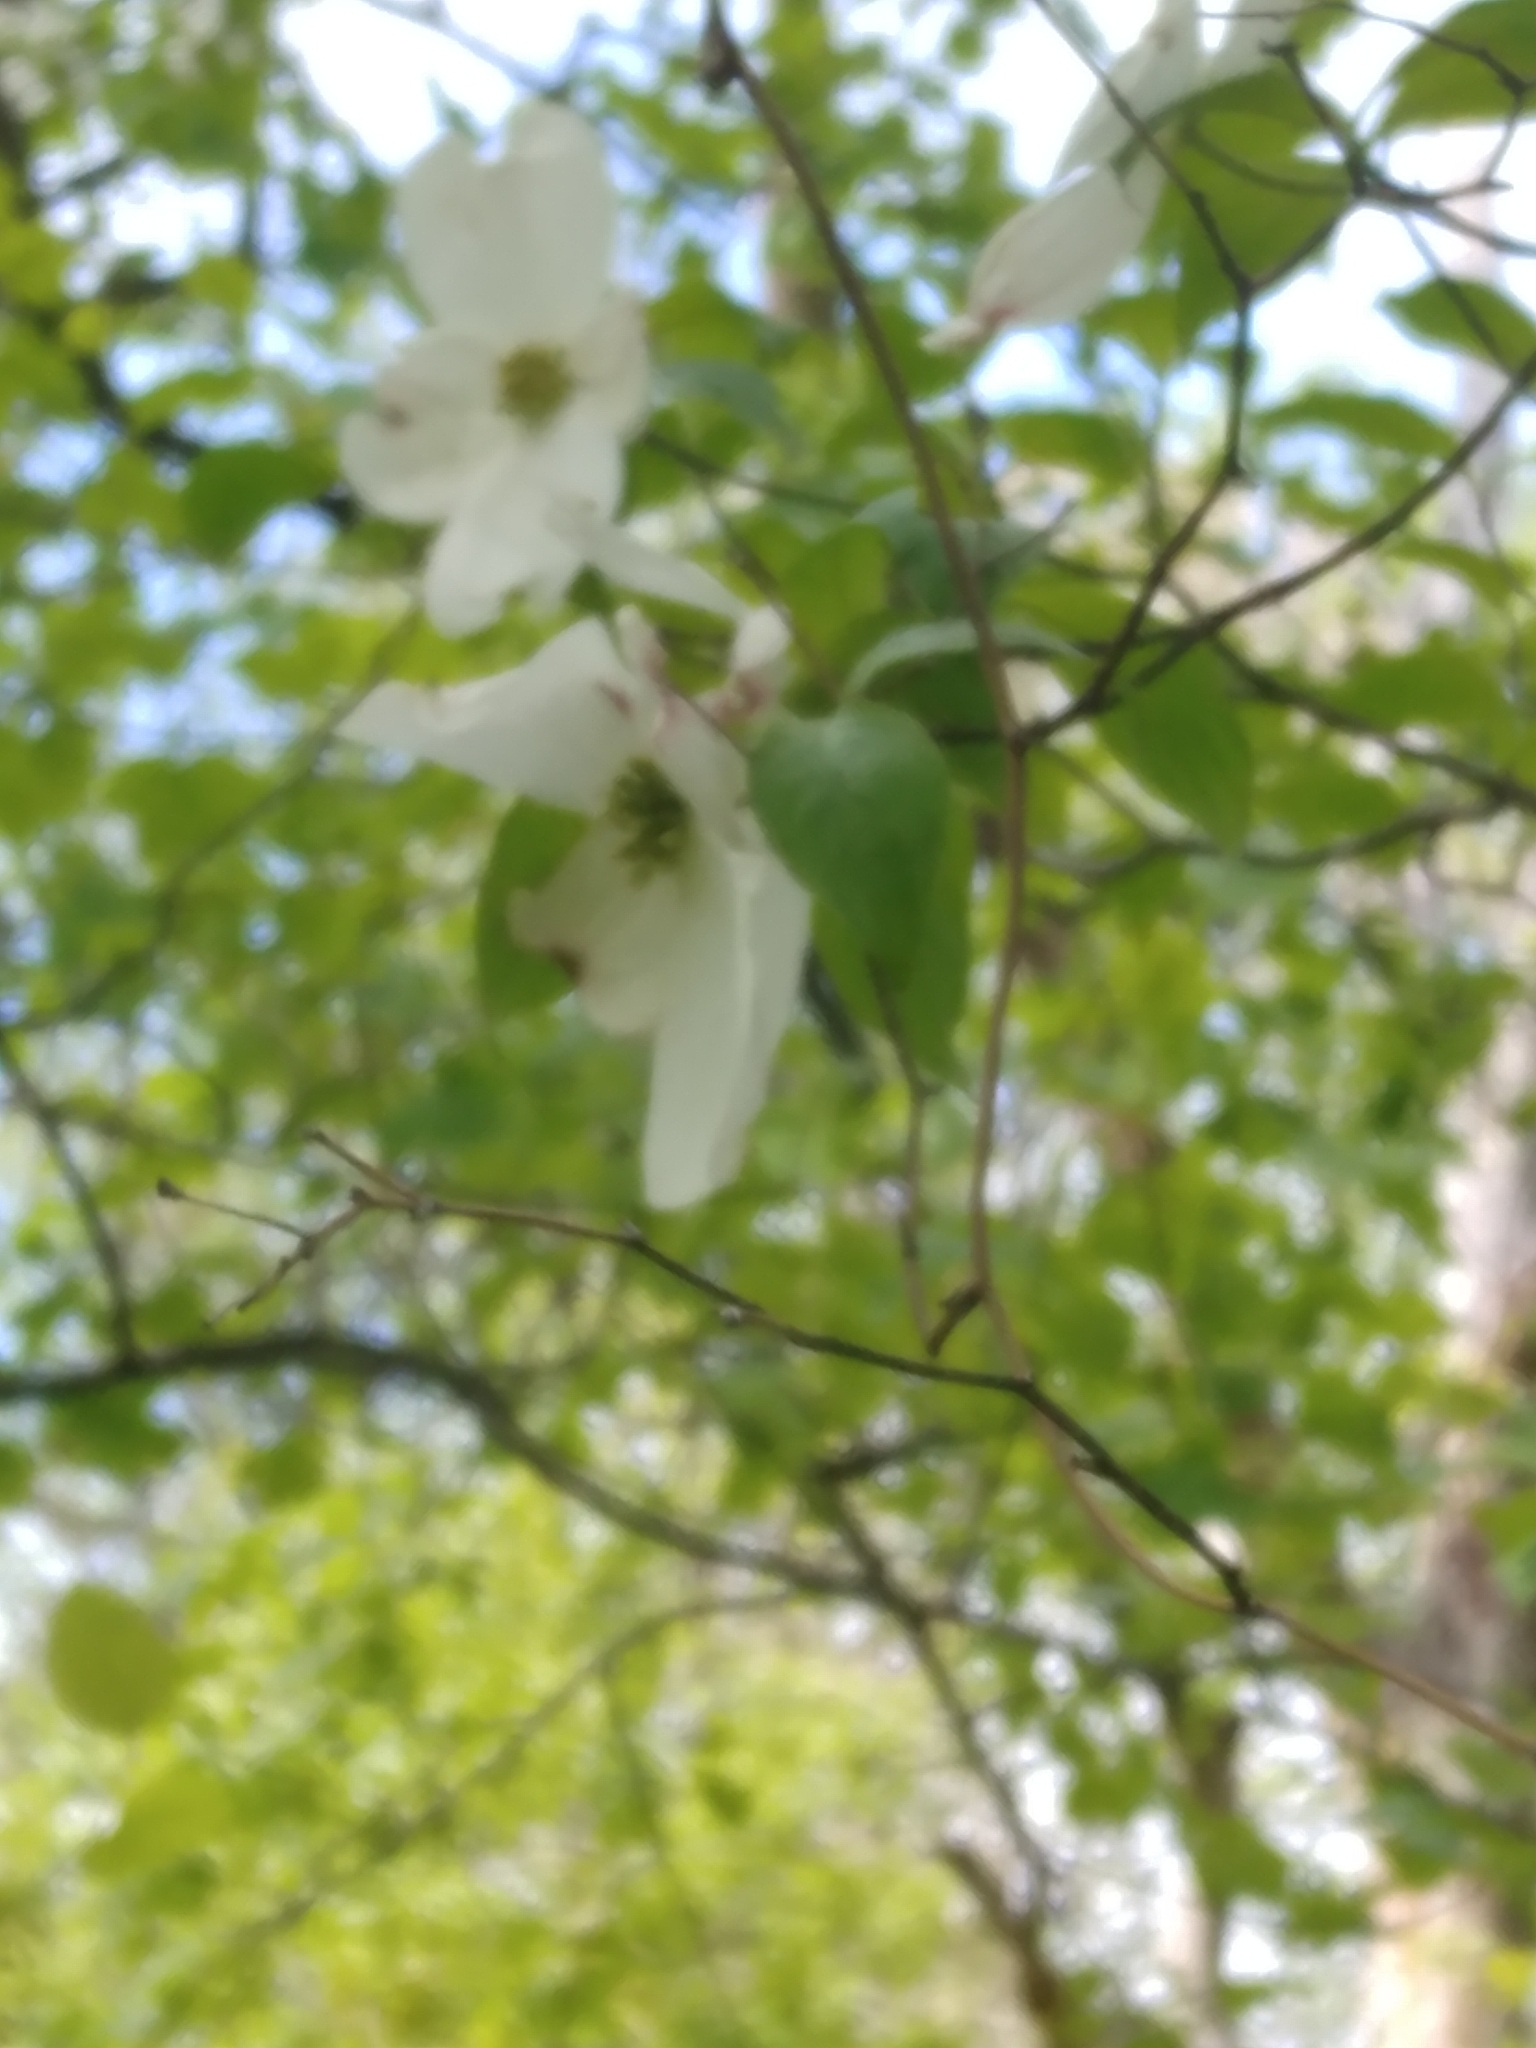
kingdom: Plantae
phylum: Tracheophyta
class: Magnoliopsida
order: Cornales
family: Cornaceae
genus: Cornus
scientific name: Cornus florida
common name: Flowering dogwood
